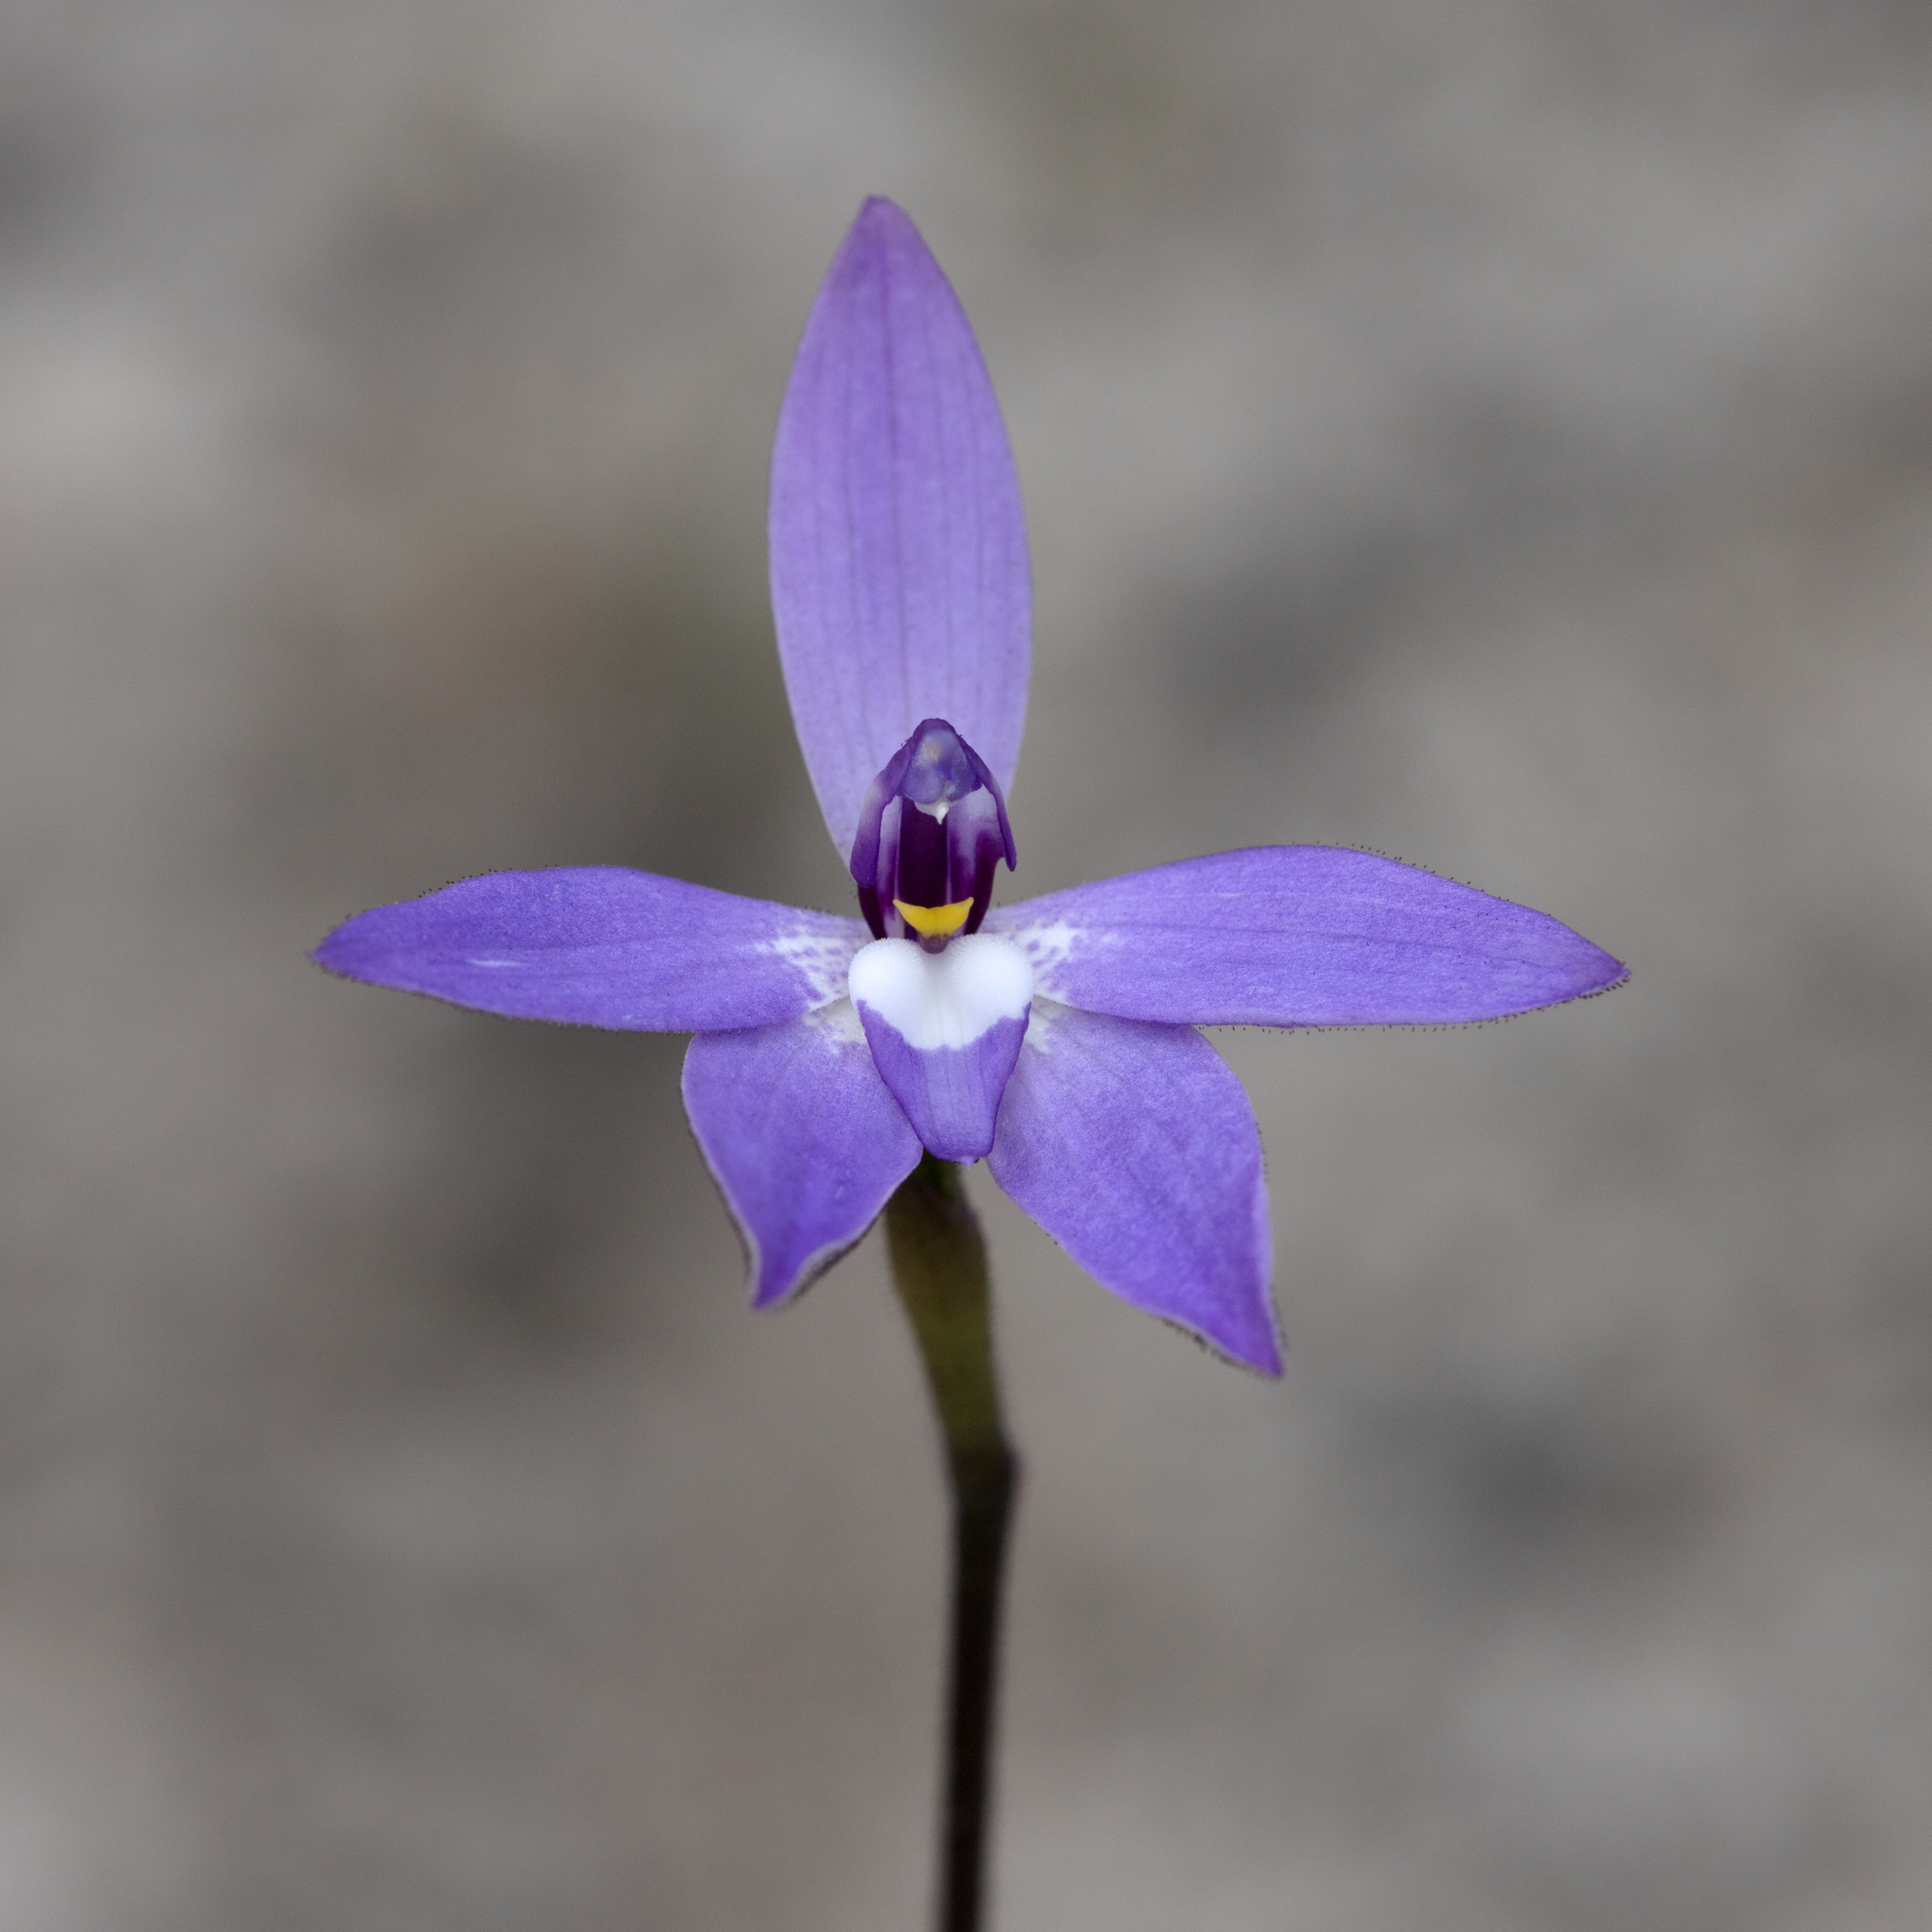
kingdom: Plantae
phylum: Tracheophyta
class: Liliopsida
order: Asparagales
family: Orchidaceae
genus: Caladenia
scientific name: Caladenia major
